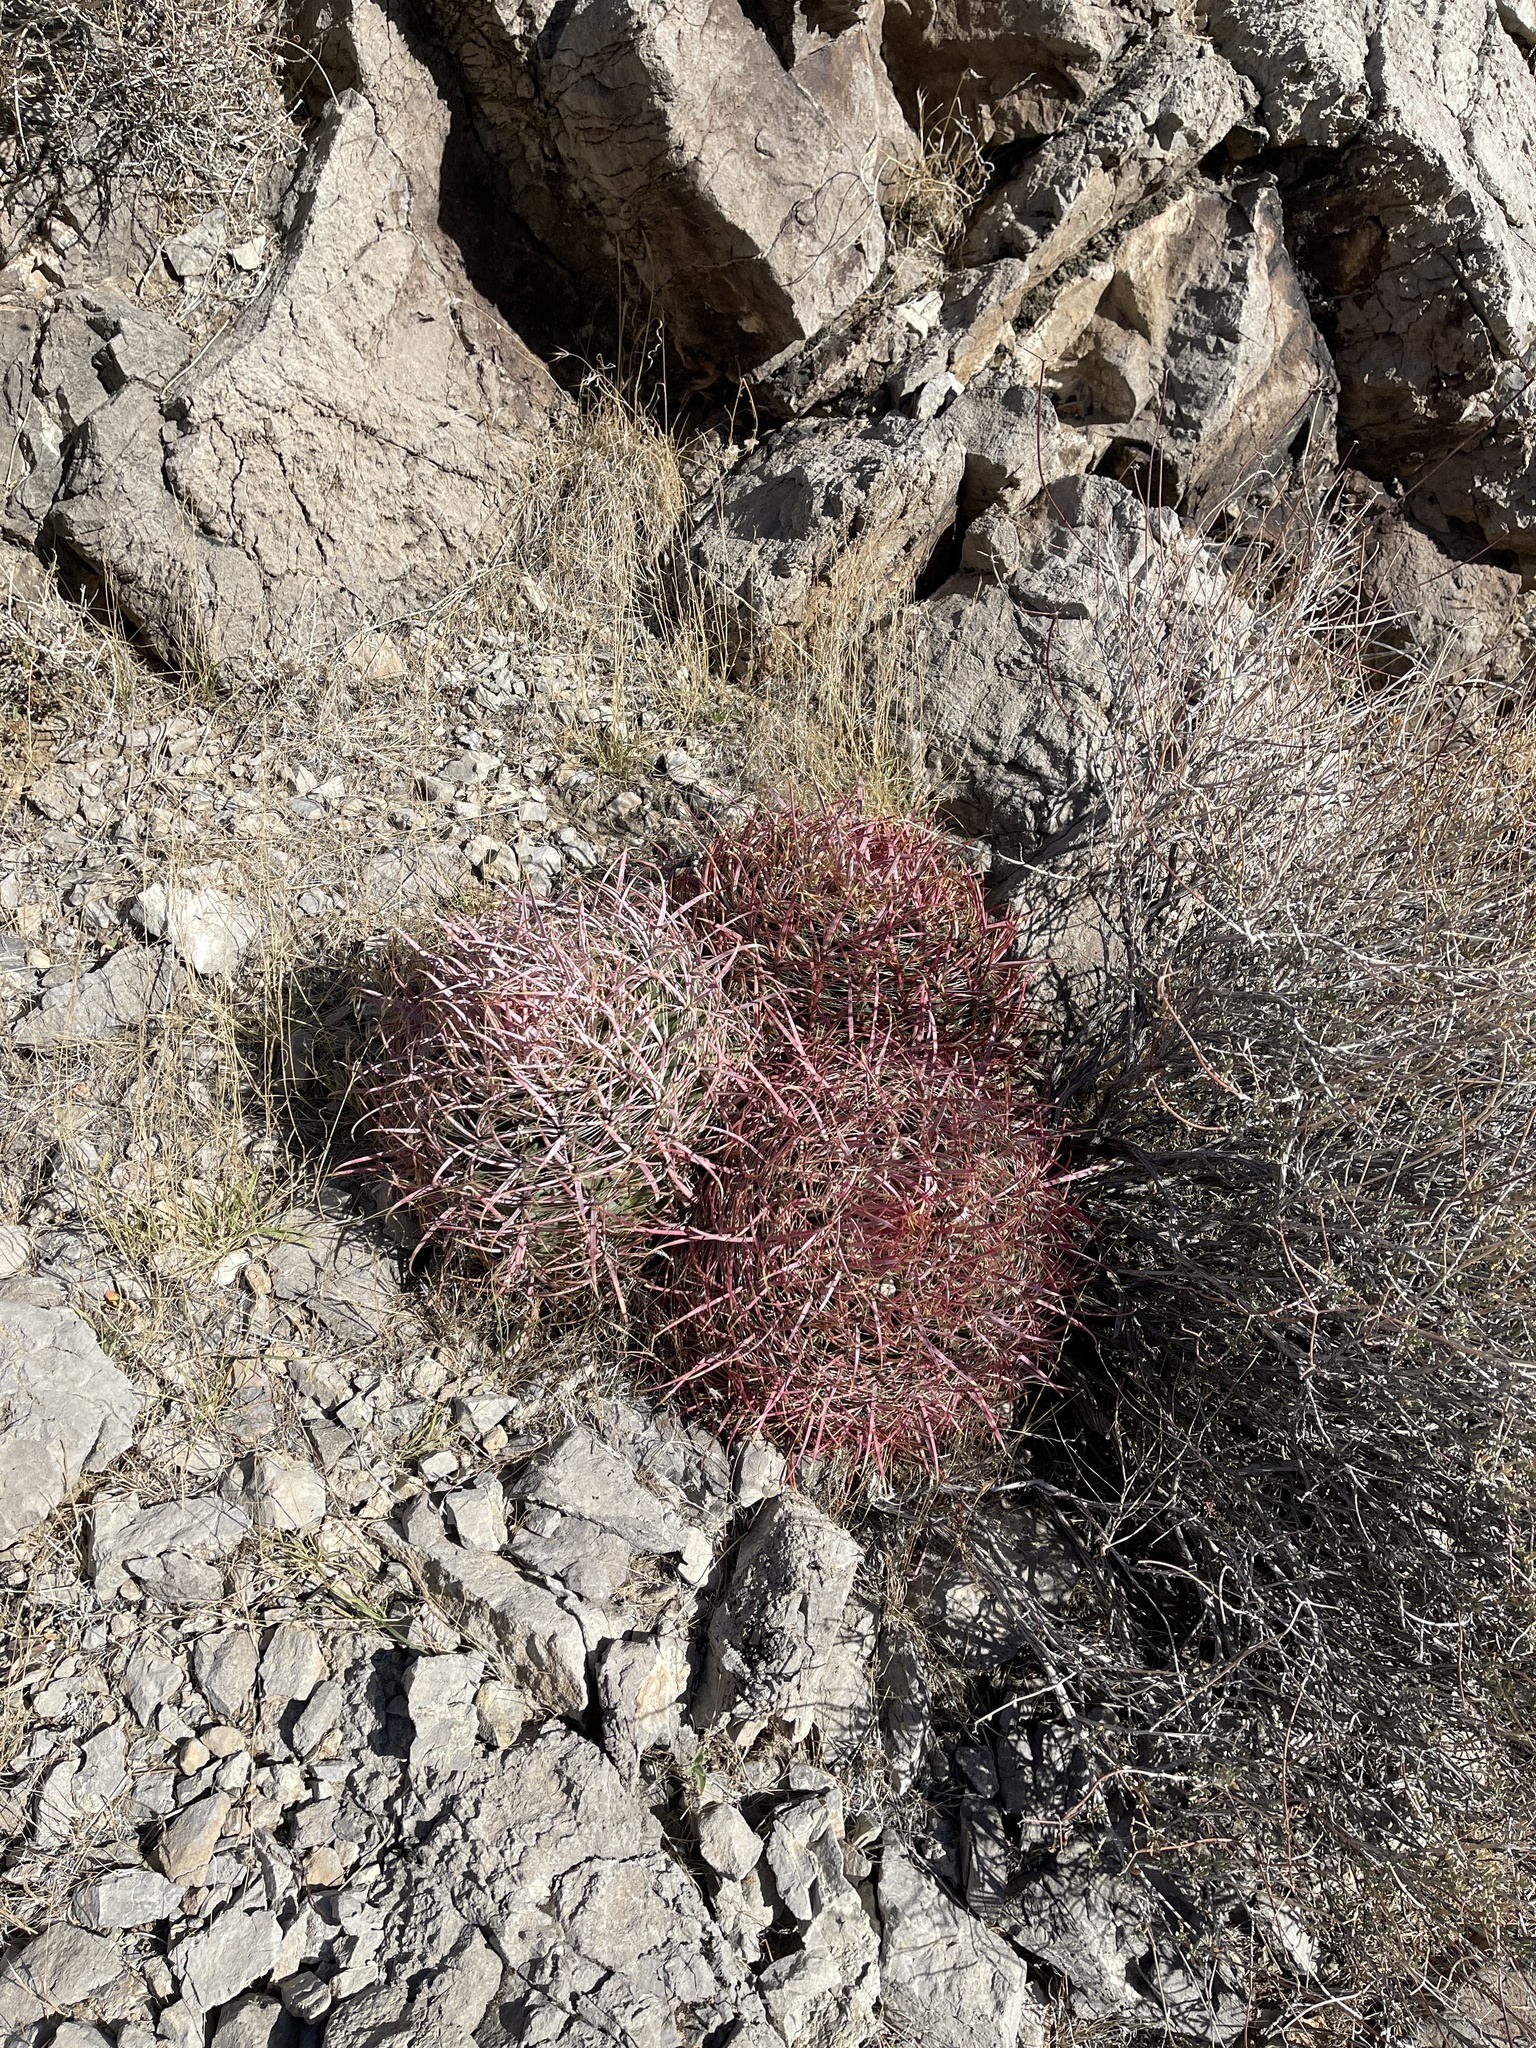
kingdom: Plantae
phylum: Tracheophyta
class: Magnoliopsida
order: Caryophyllales
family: Cactaceae
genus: Ferocactus
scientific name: Ferocactus cylindraceus
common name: California barrel cactus
